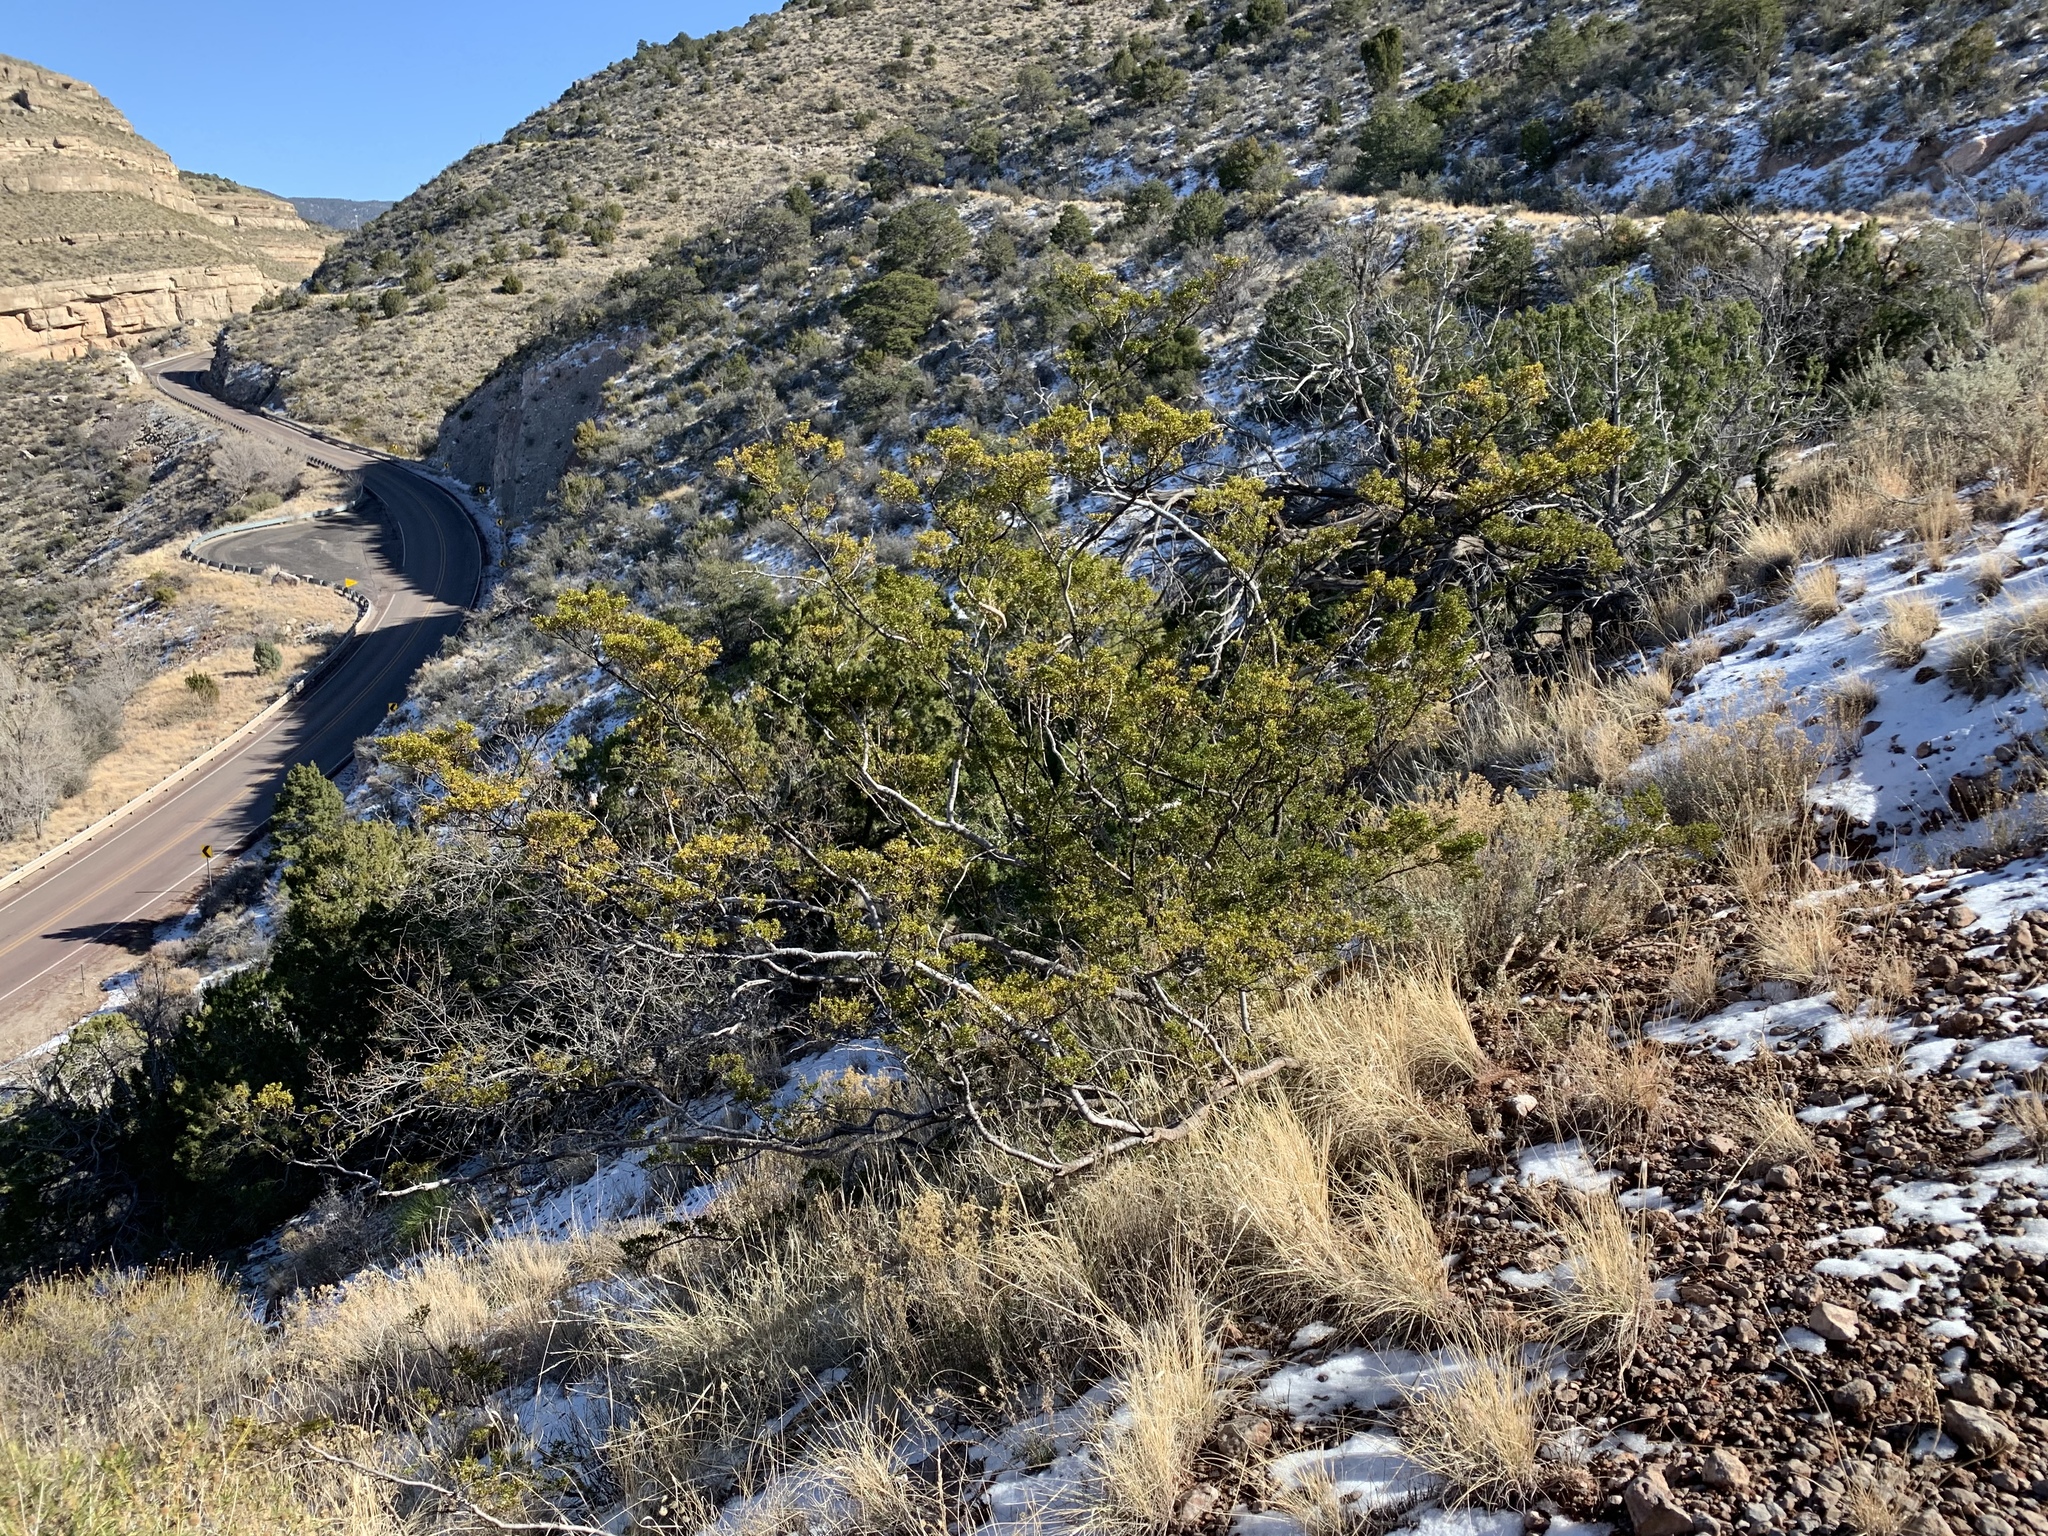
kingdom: Plantae
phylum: Tracheophyta
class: Magnoliopsida
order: Zygophyllales
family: Zygophyllaceae
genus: Larrea
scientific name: Larrea tridentata
